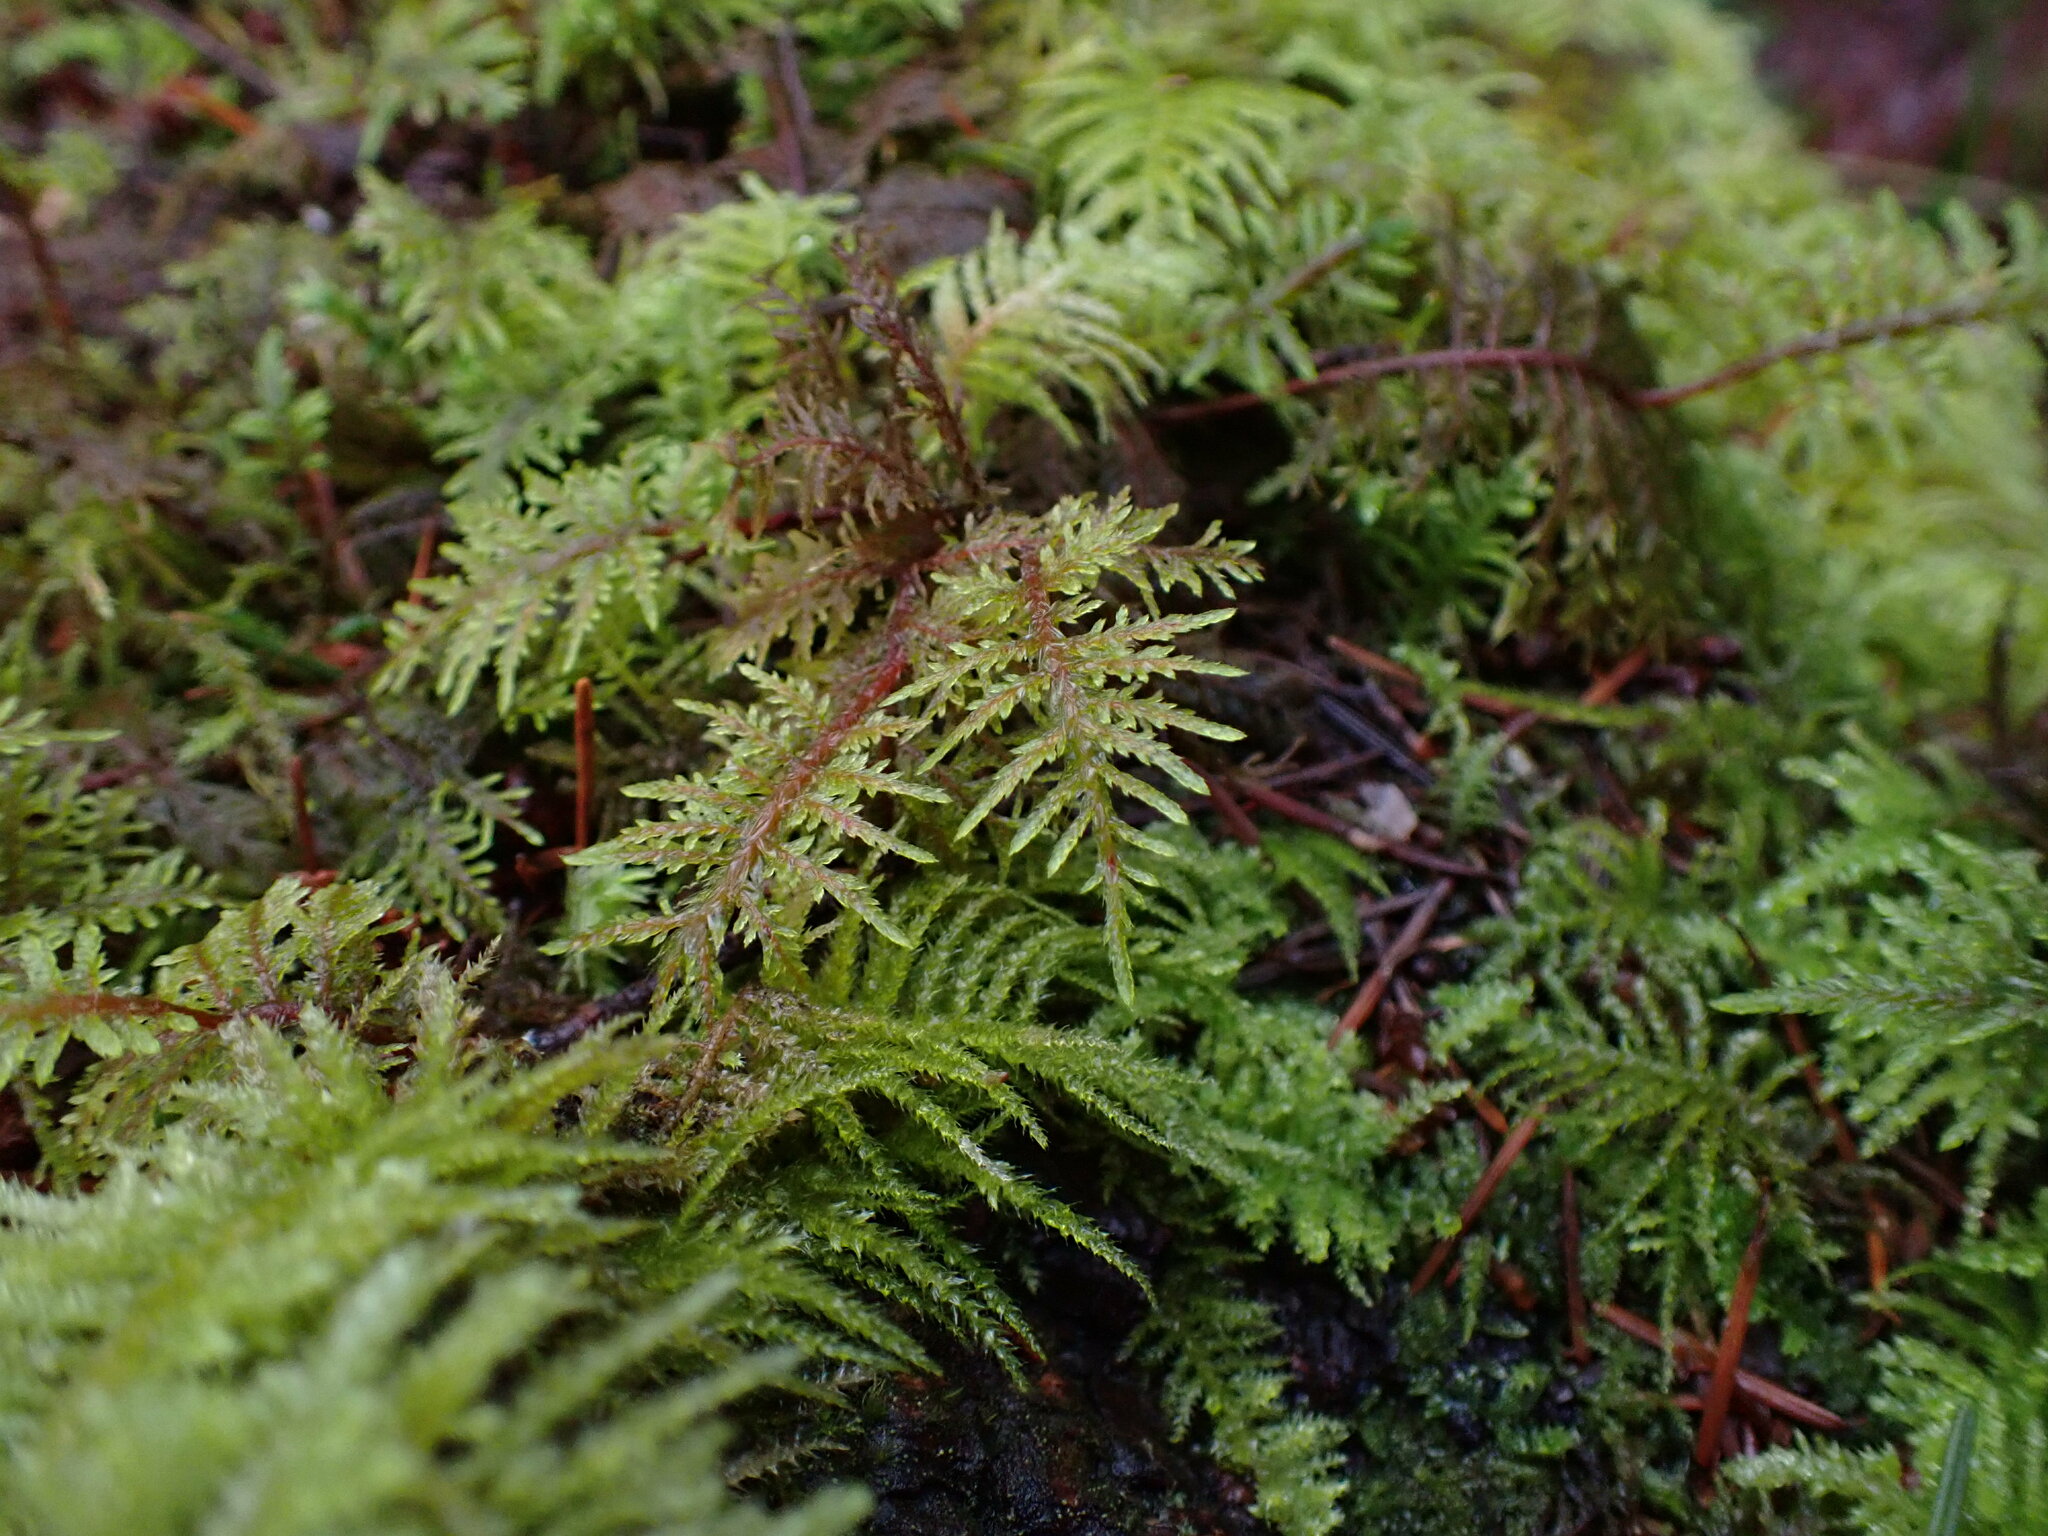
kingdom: Plantae
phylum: Bryophyta
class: Bryopsida
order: Hypnales
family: Hylocomiaceae
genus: Hylocomium
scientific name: Hylocomium splendens
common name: Stairstep moss
